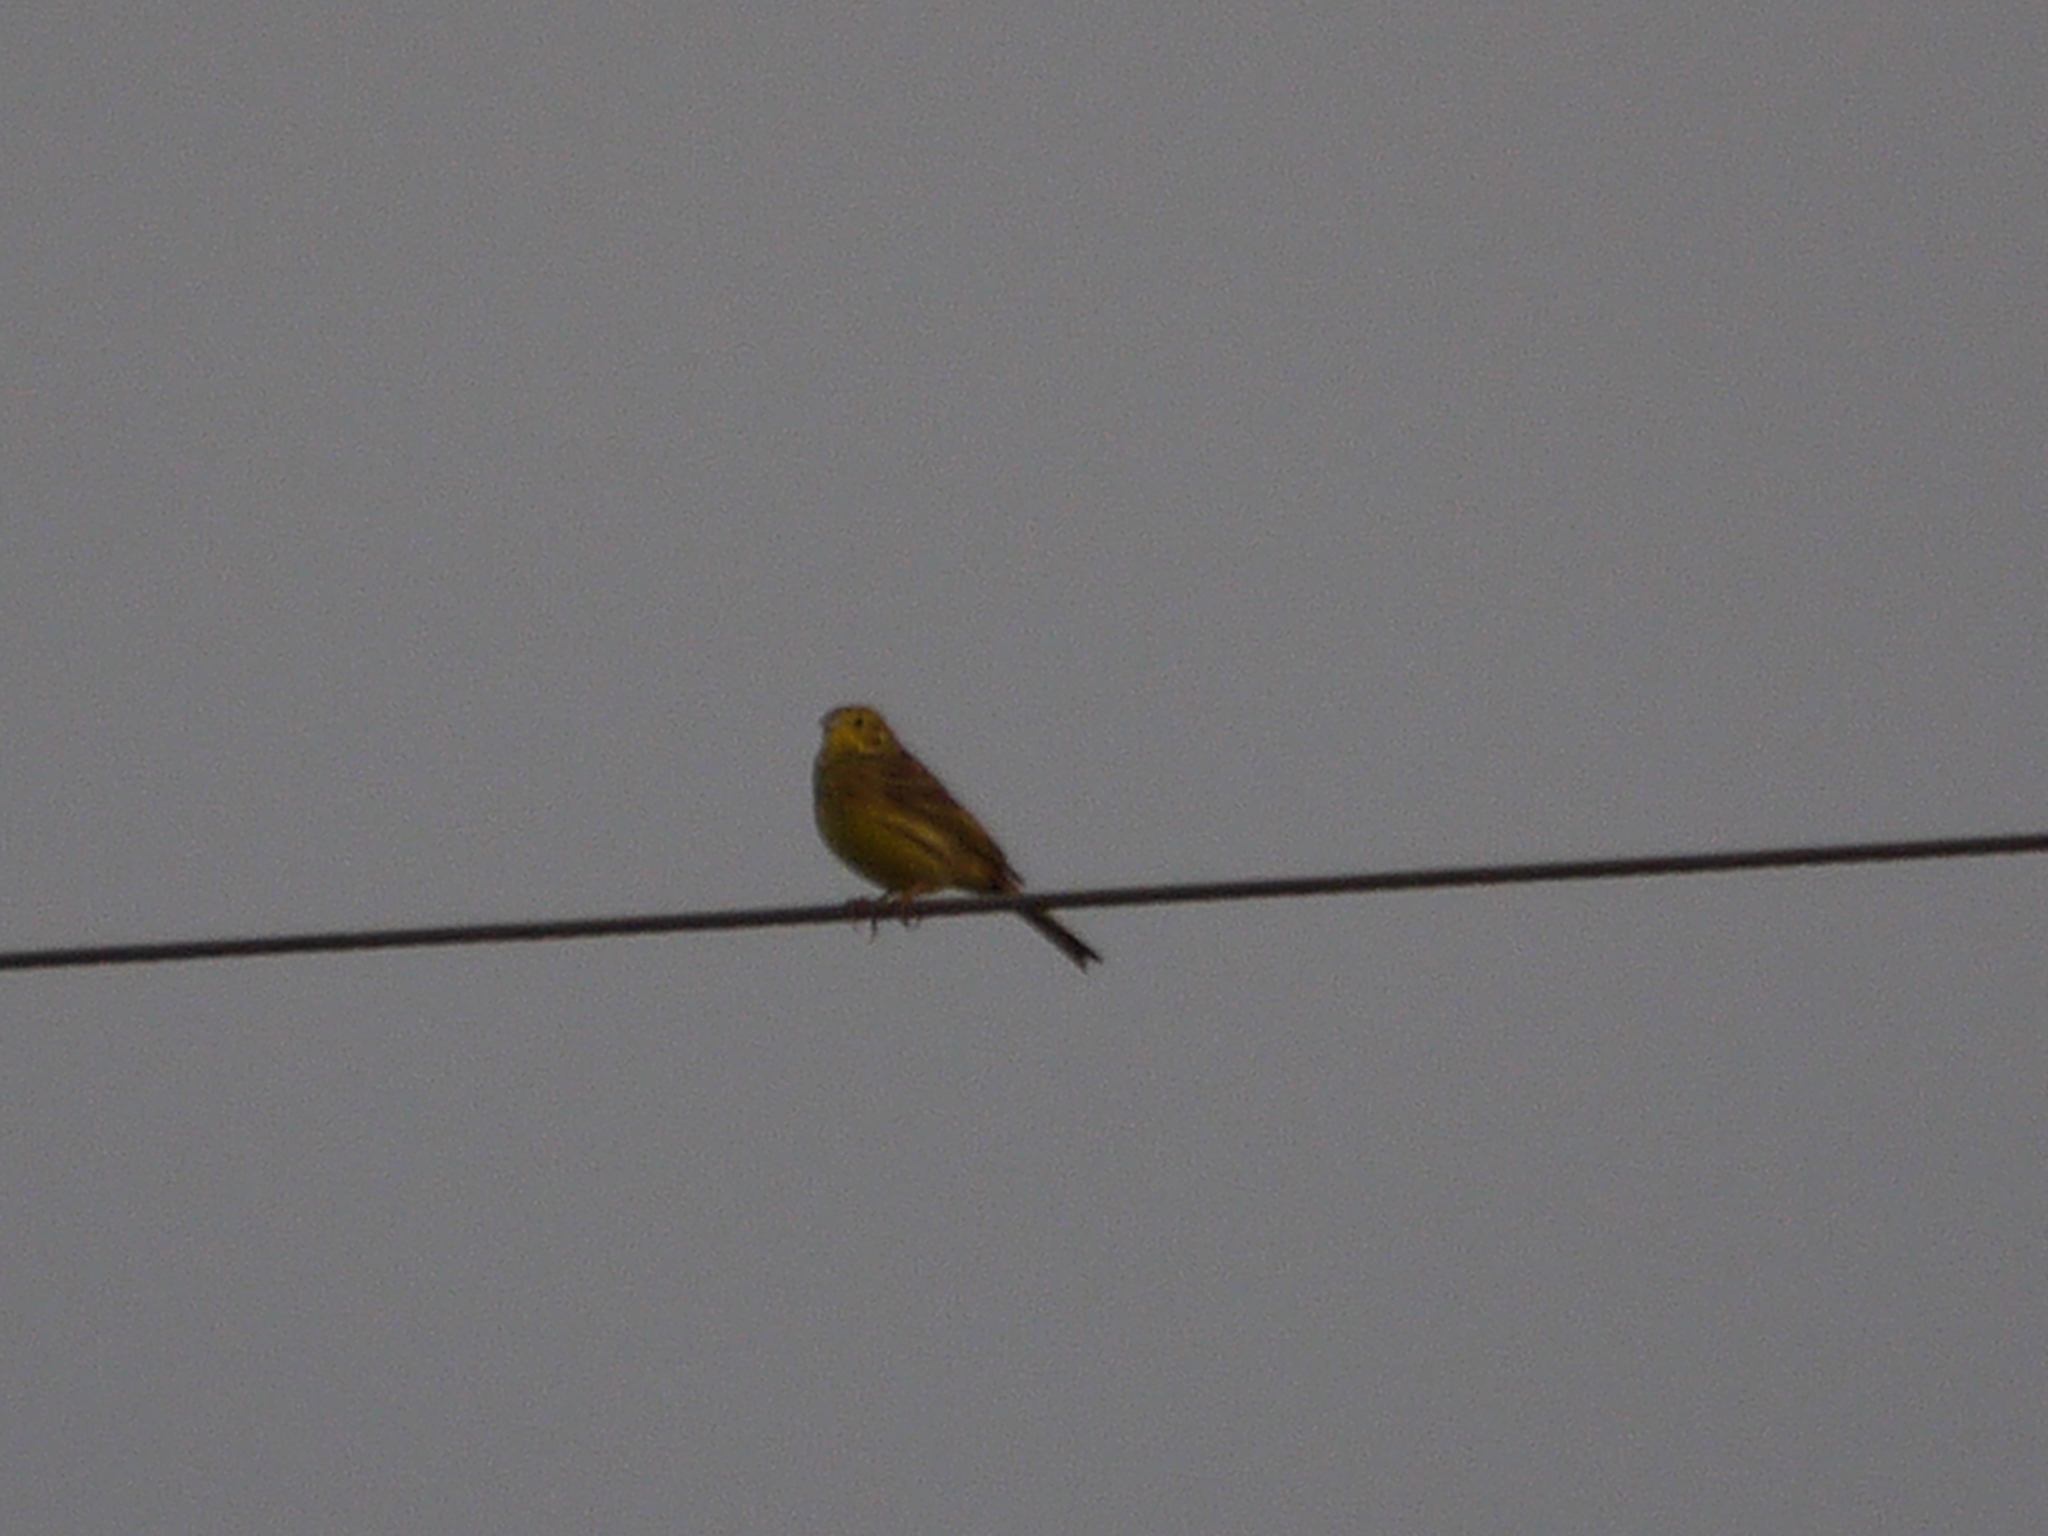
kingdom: Animalia
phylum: Chordata
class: Aves
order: Passeriformes
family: Emberizidae
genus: Emberiza
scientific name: Emberiza citrinella
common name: Yellowhammer
